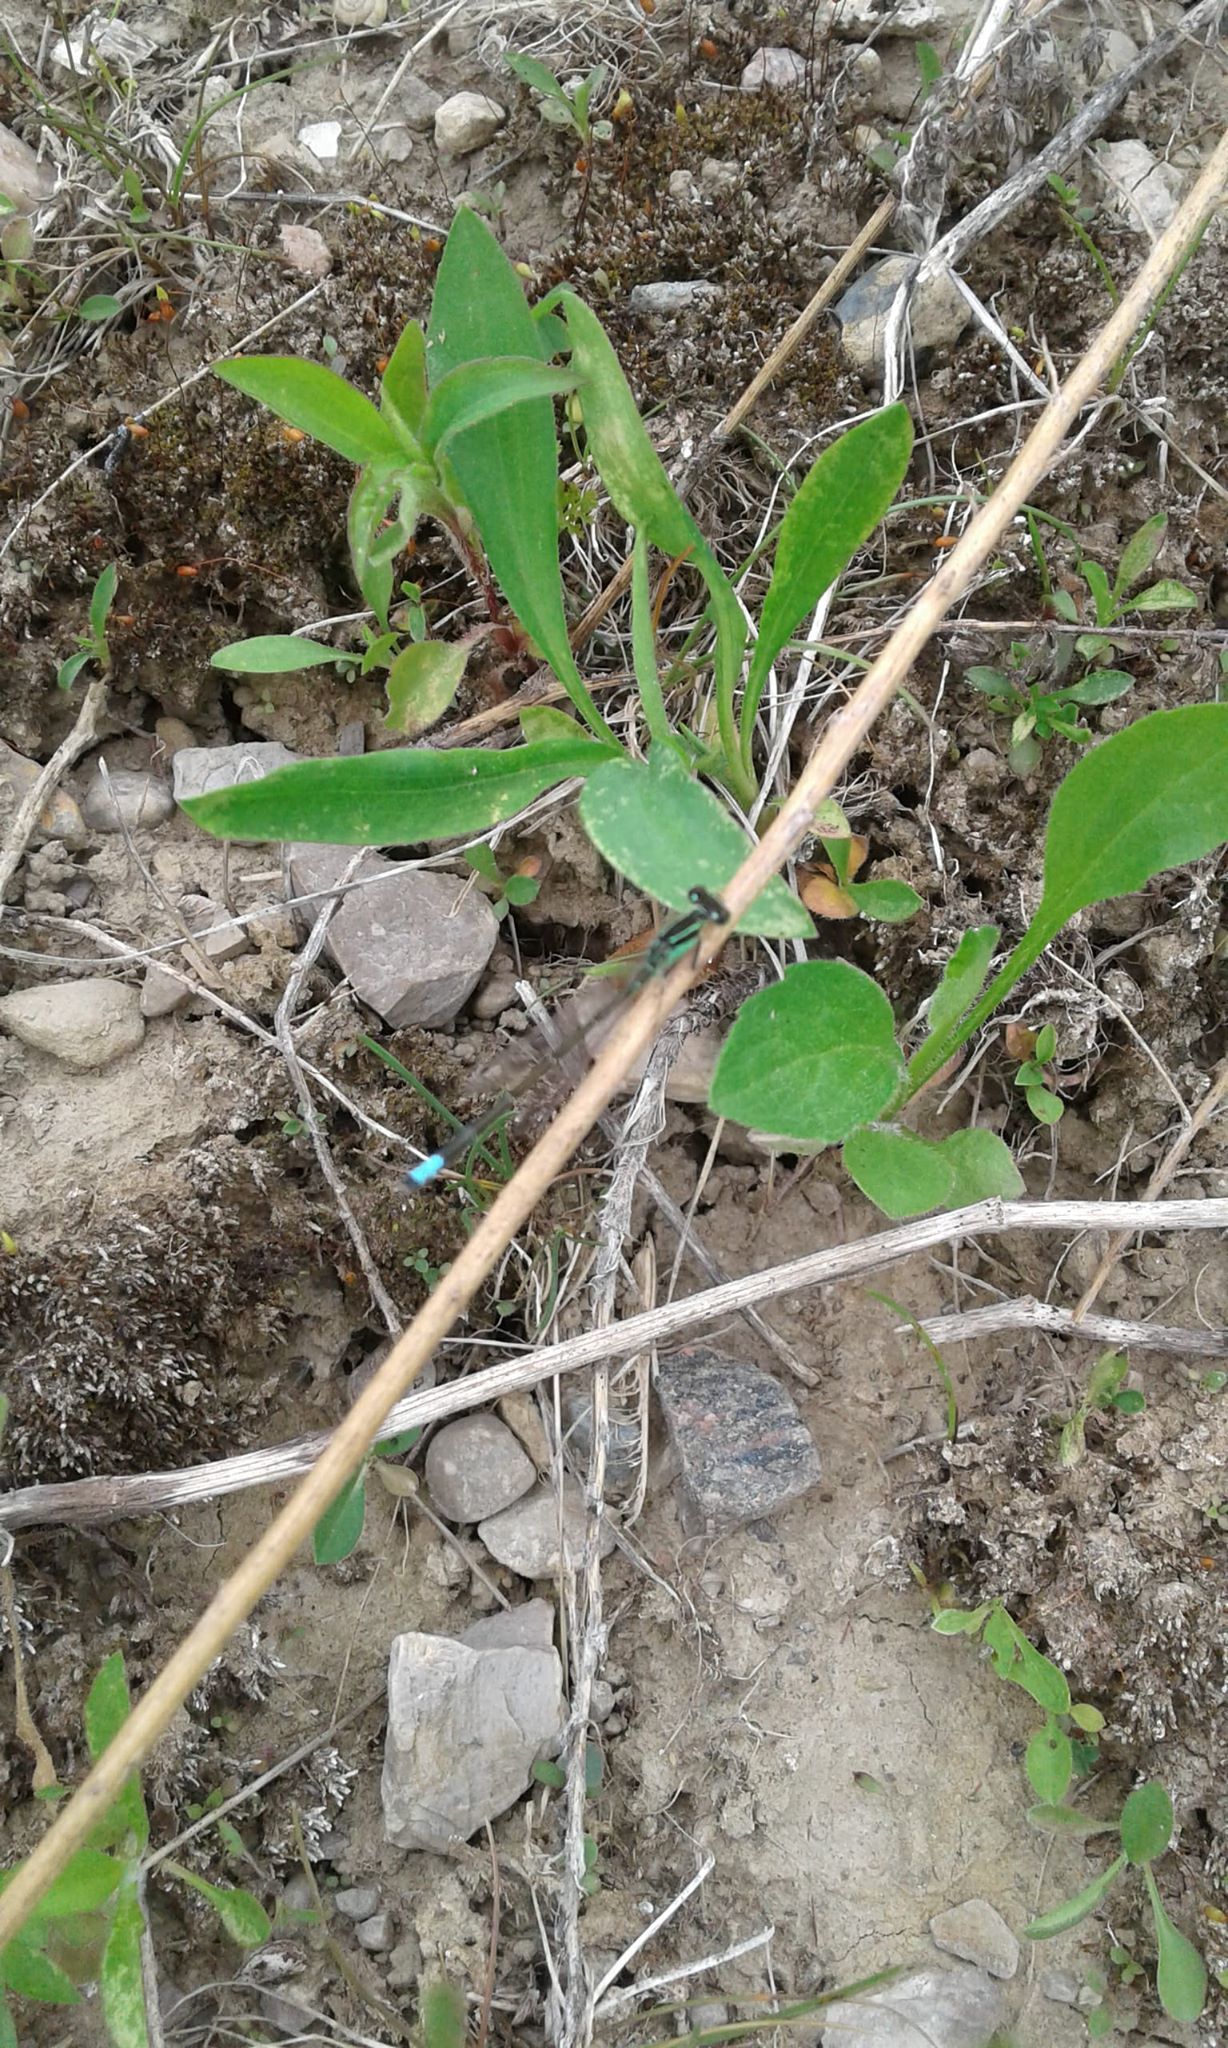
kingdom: Animalia
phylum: Arthropoda
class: Insecta
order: Odonata
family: Coenagrionidae
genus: Ischnura
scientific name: Ischnura verticalis
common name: Eastern forktail
